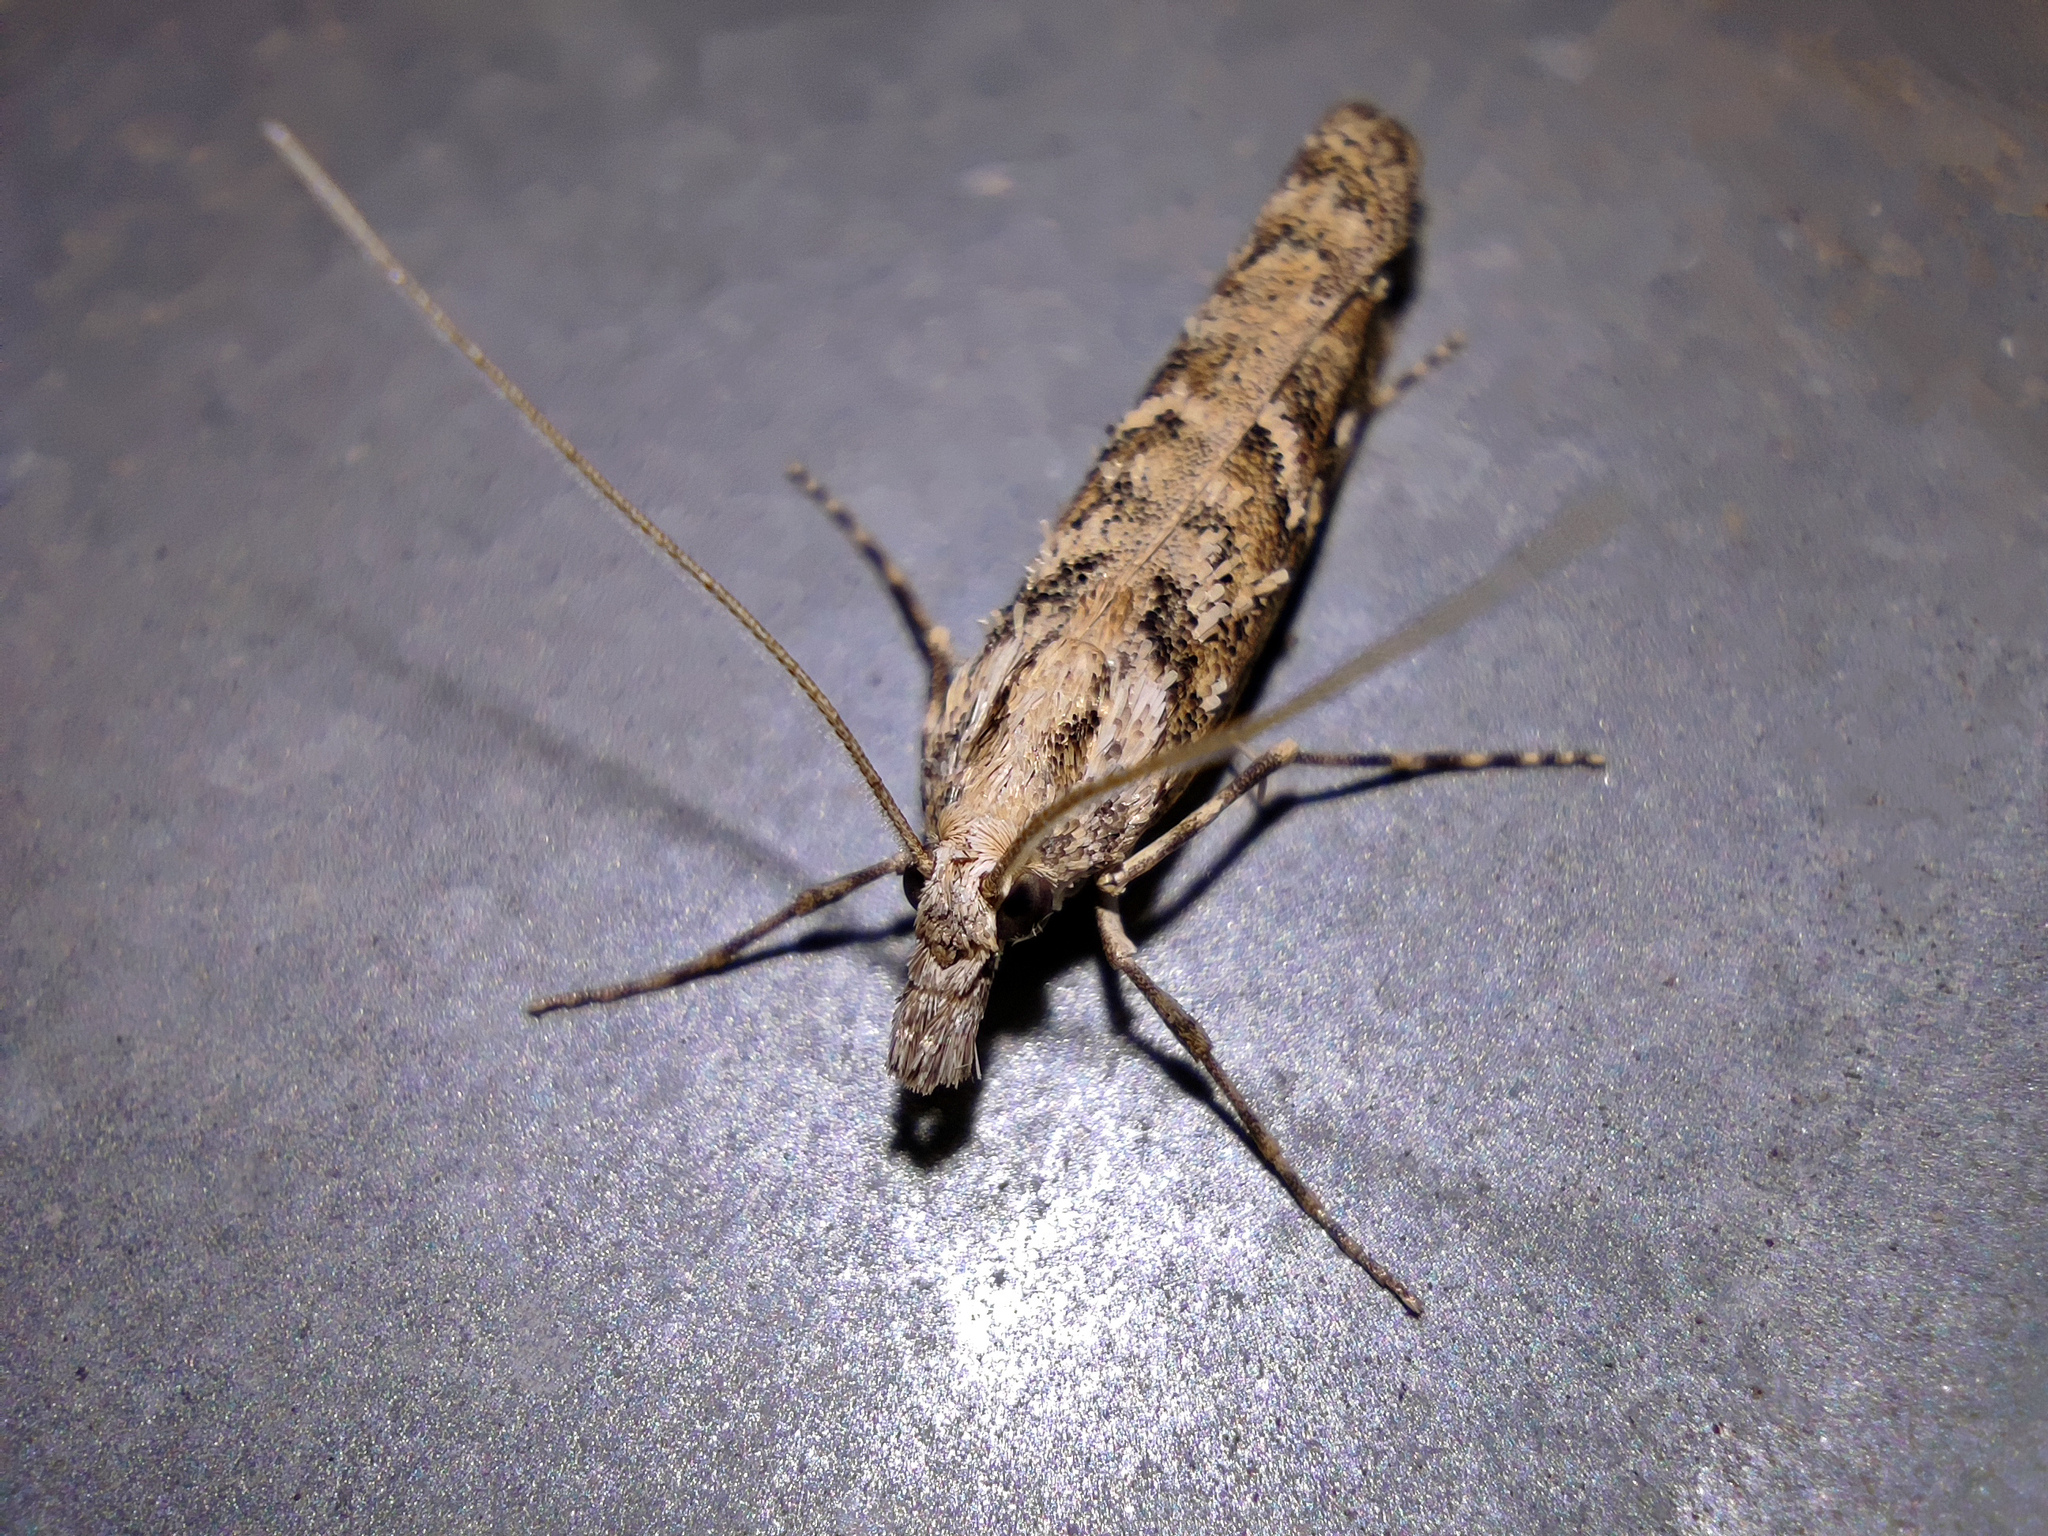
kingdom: Animalia
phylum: Arthropoda
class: Insecta
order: Lepidoptera
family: Crambidae
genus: Talis
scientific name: Talis quercella
